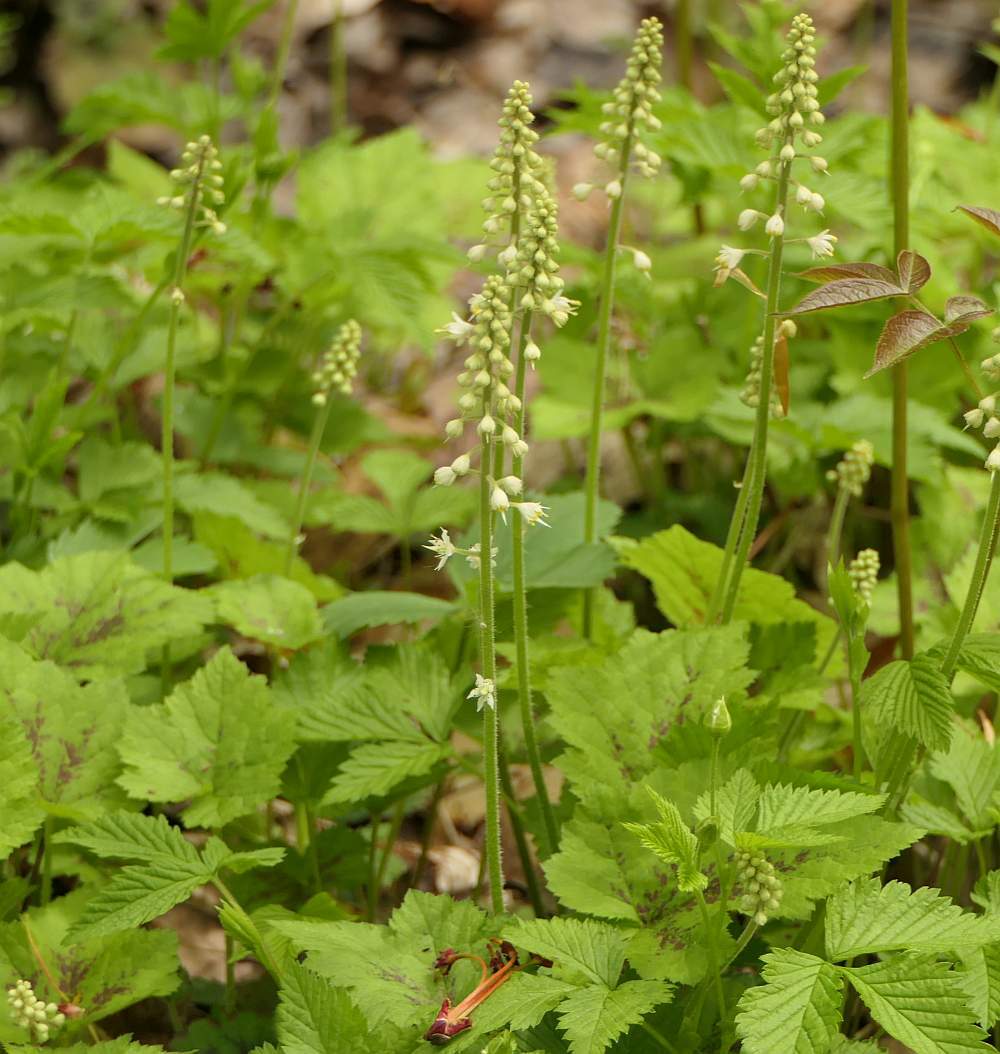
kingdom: Plantae
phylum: Tracheophyta
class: Magnoliopsida
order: Saxifragales
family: Saxifragaceae
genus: Tiarella
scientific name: Tiarella stolonifera
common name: Stoloniferous foamflower
